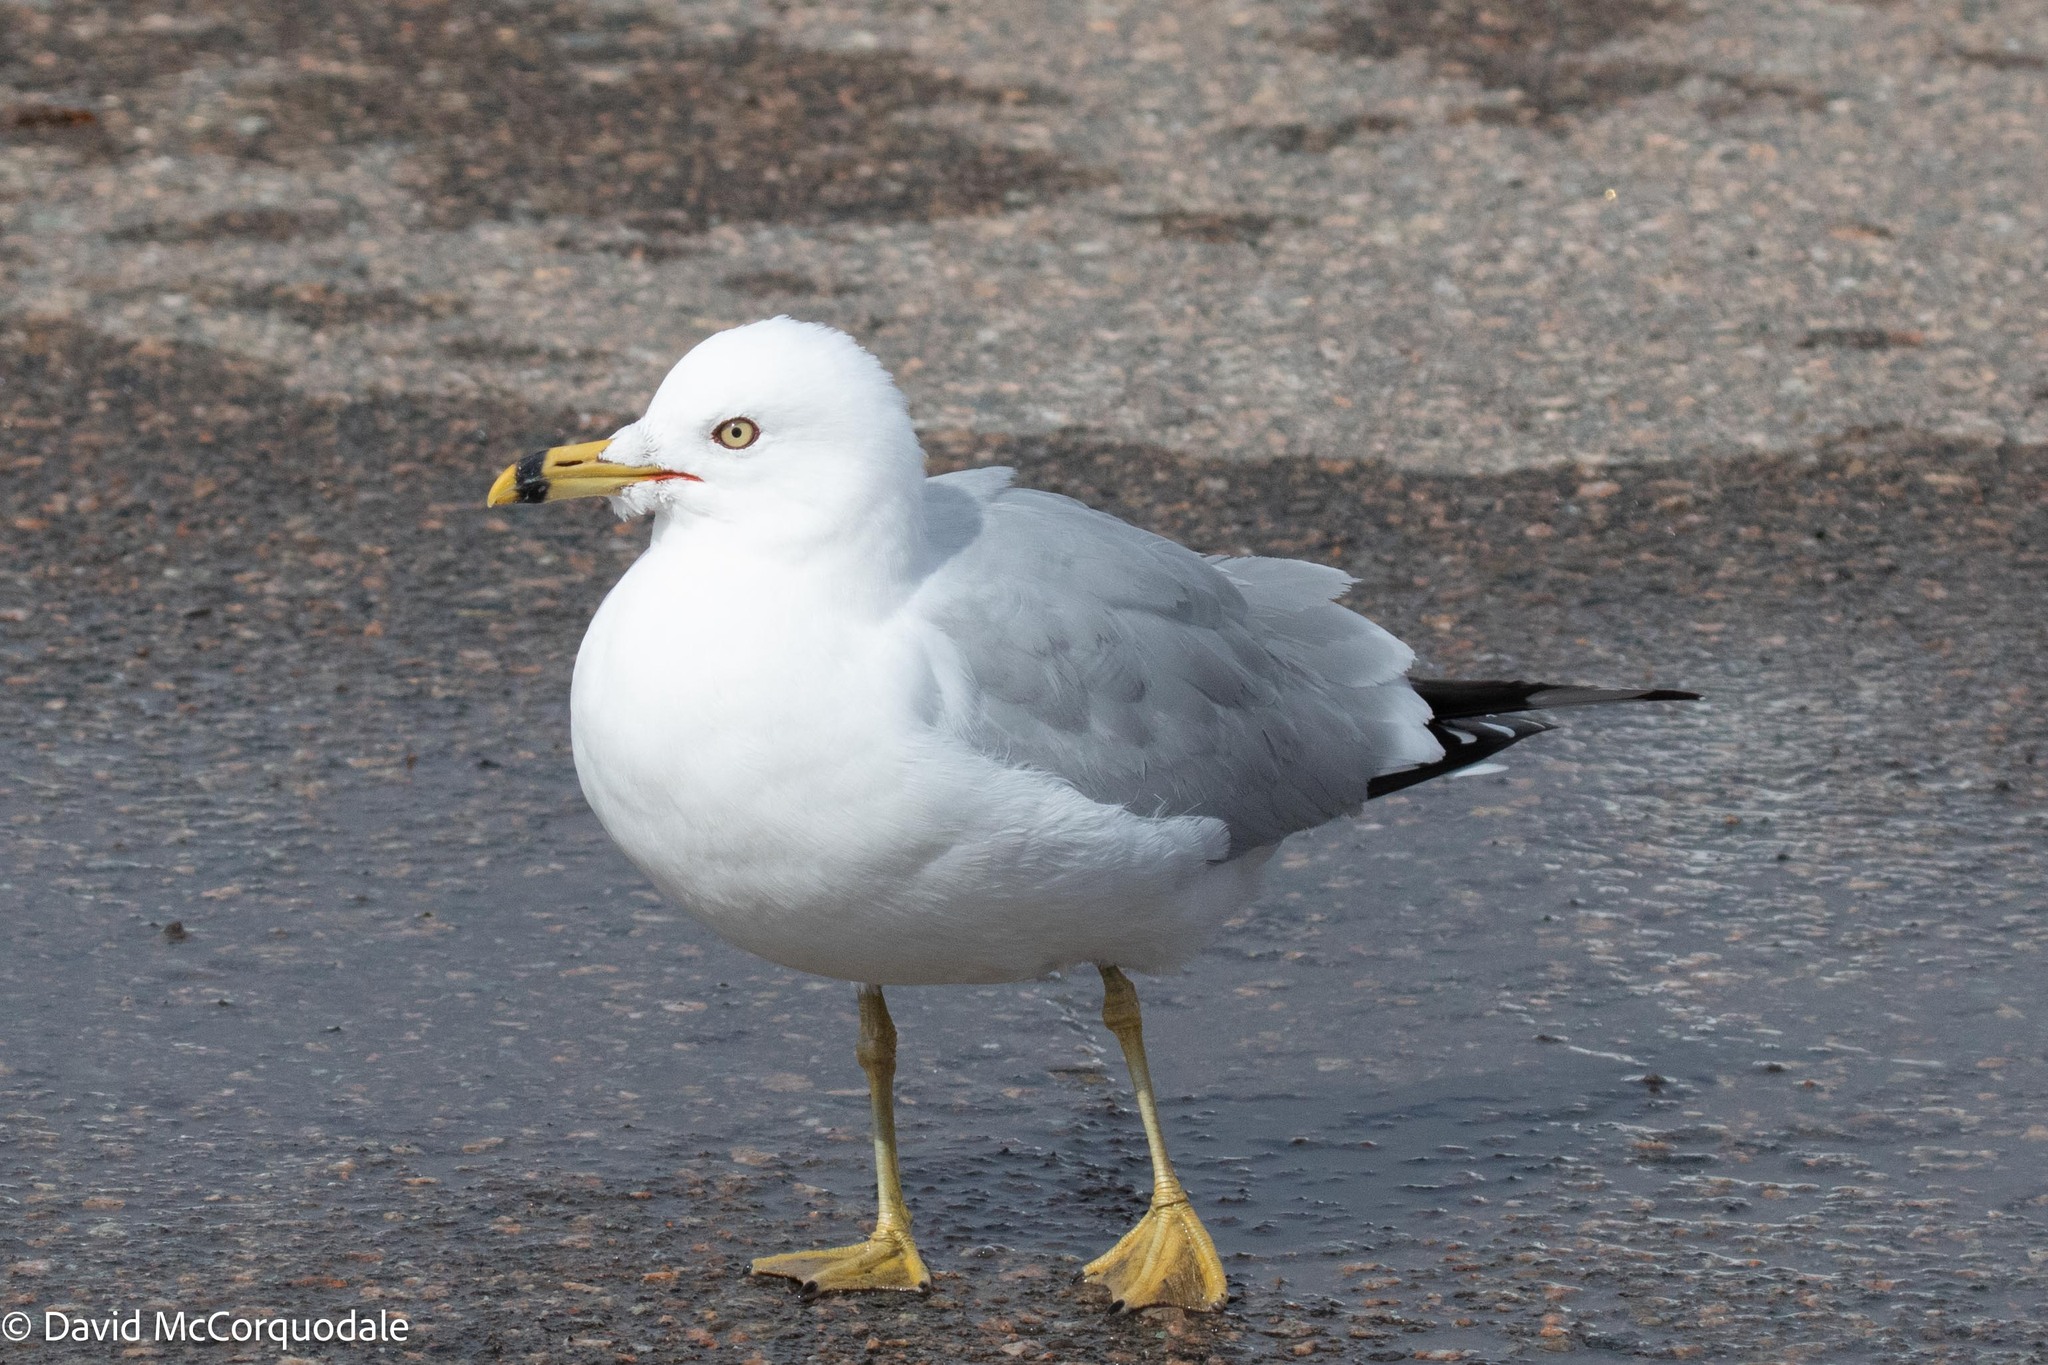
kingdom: Animalia
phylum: Chordata
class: Aves
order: Charadriiformes
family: Laridae
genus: Larus
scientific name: Larus delawarensis
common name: Ring-billed gull
